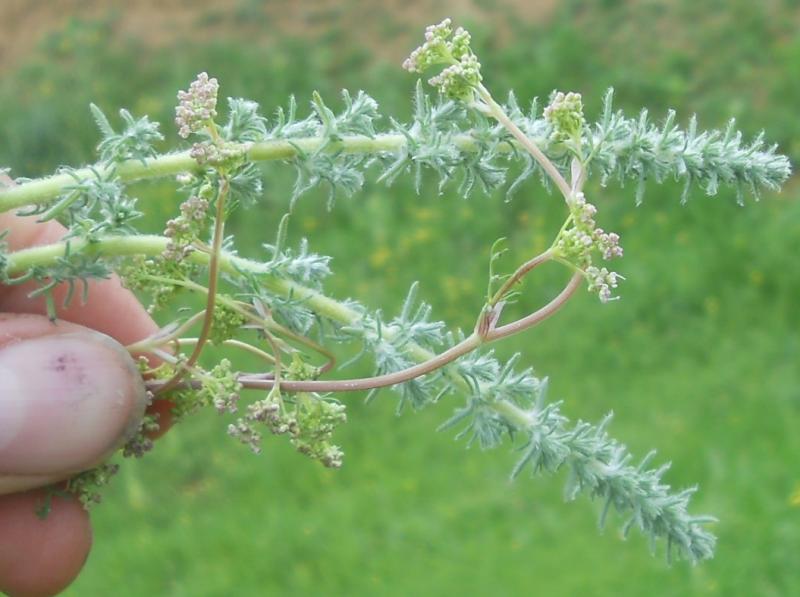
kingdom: Plantae
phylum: Tracheophyta
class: Magnoliopsida
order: Brassicales
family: Brassicaceae
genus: Berteroa
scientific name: Berteroa incana
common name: Hoary alison
